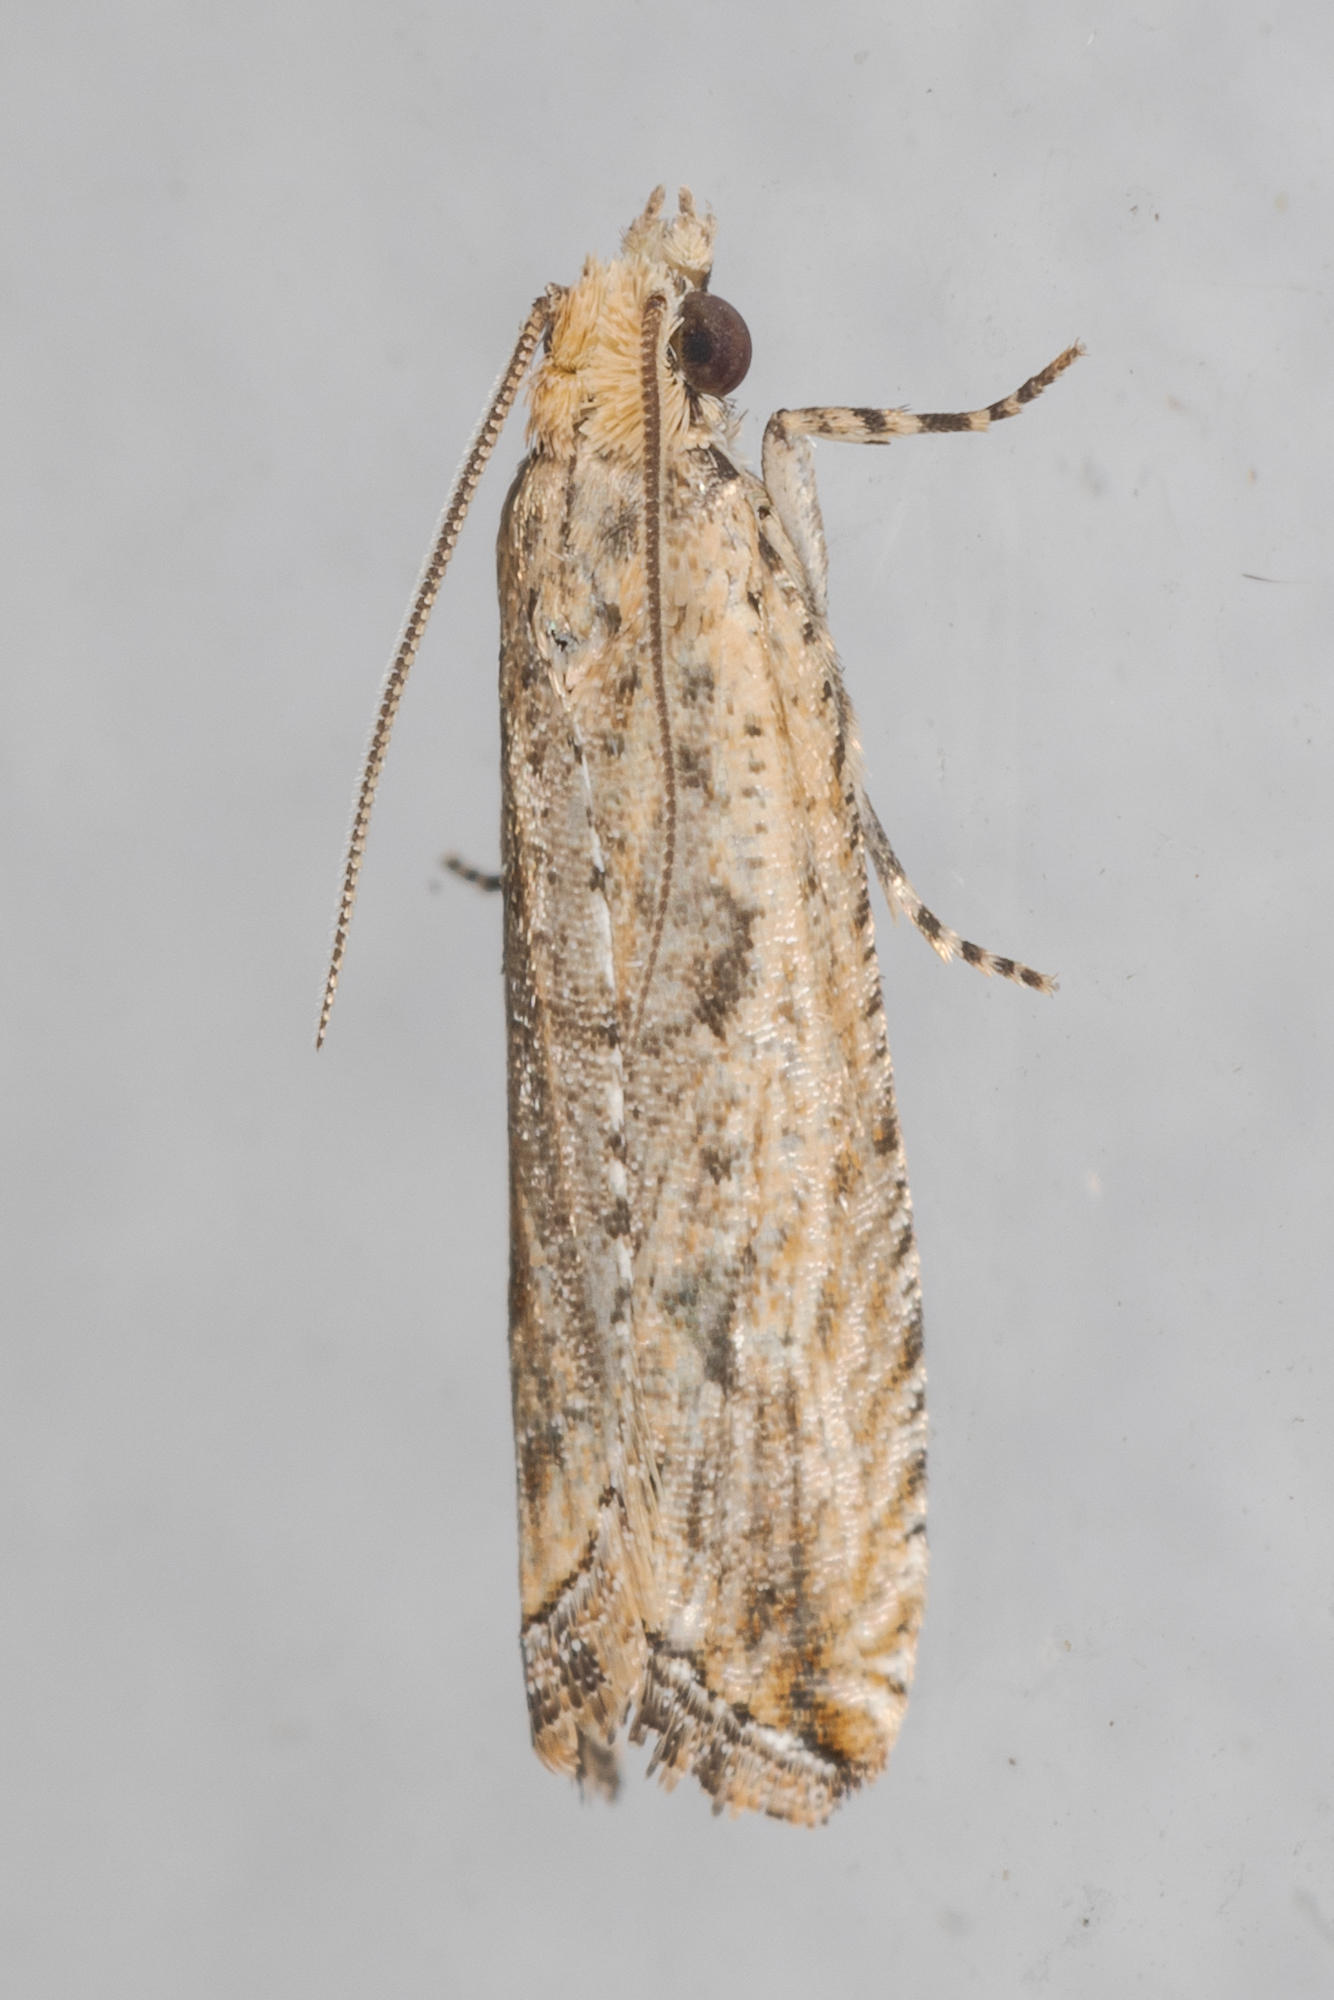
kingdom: Animalia
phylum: Arthropoda
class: Insecta
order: Lepidoptera
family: Tortricidae
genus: Bactra
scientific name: Bactra verutana
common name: Javelin moth
